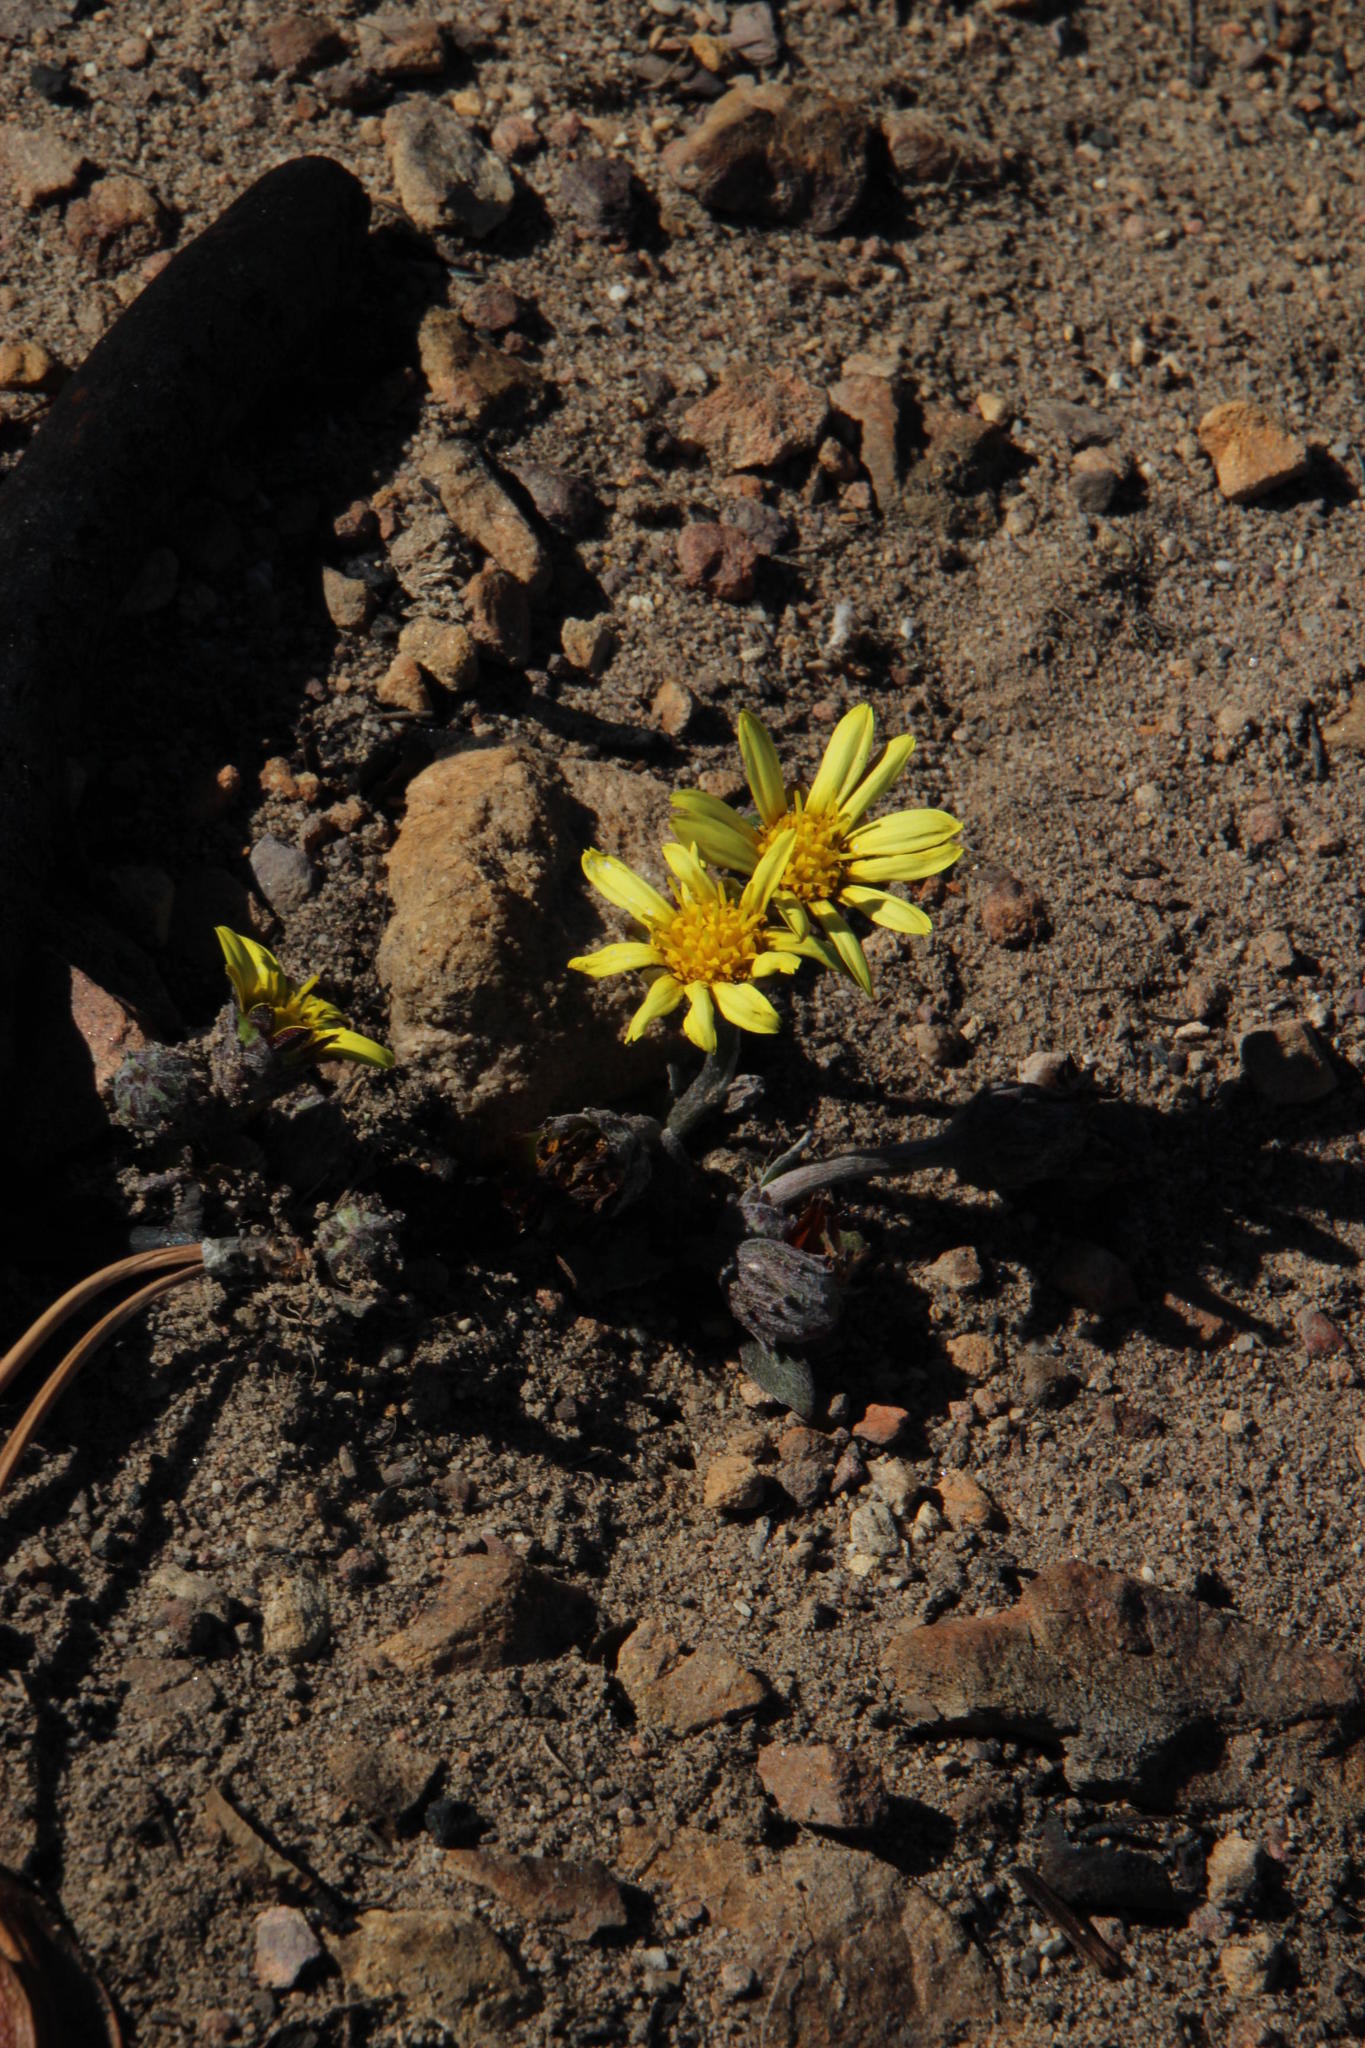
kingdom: Plantae
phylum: Tracheophyta
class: Magnoliopsida
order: Asterales
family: Asteraceae
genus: Haplocarpha
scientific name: Haplocarpha lanata
